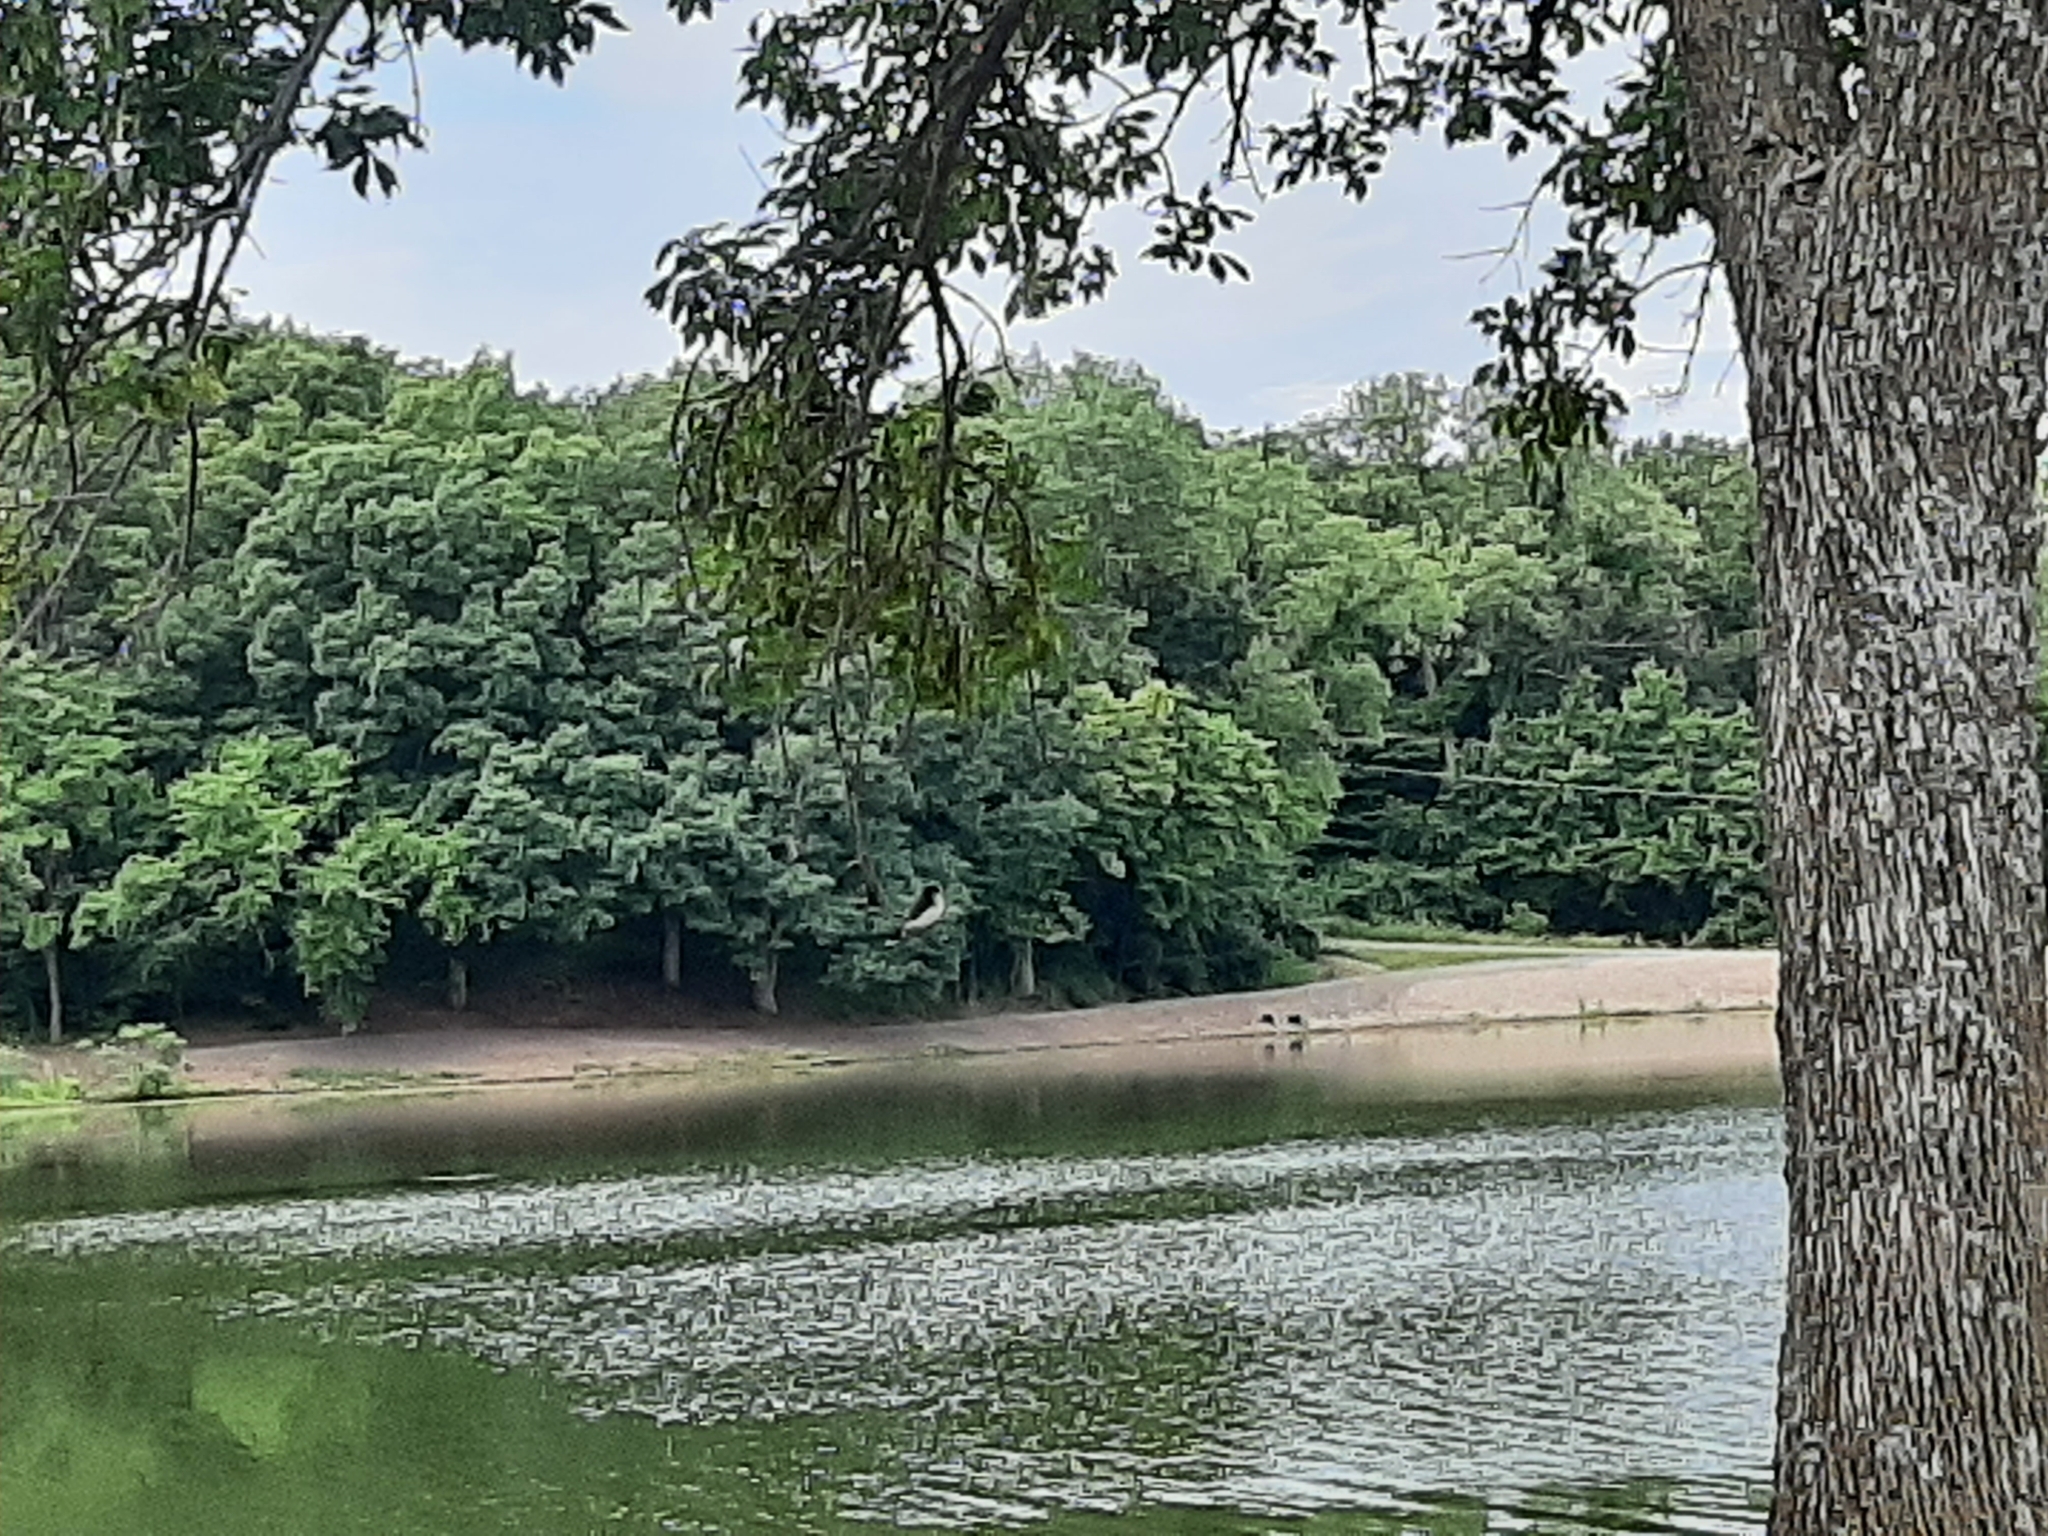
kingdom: Animalia
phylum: Chordata
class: Aves
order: Passeriformes
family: Tyrannidae
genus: Tyrannus
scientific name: Tyrannus tyrannus
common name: Eastern kingbird
